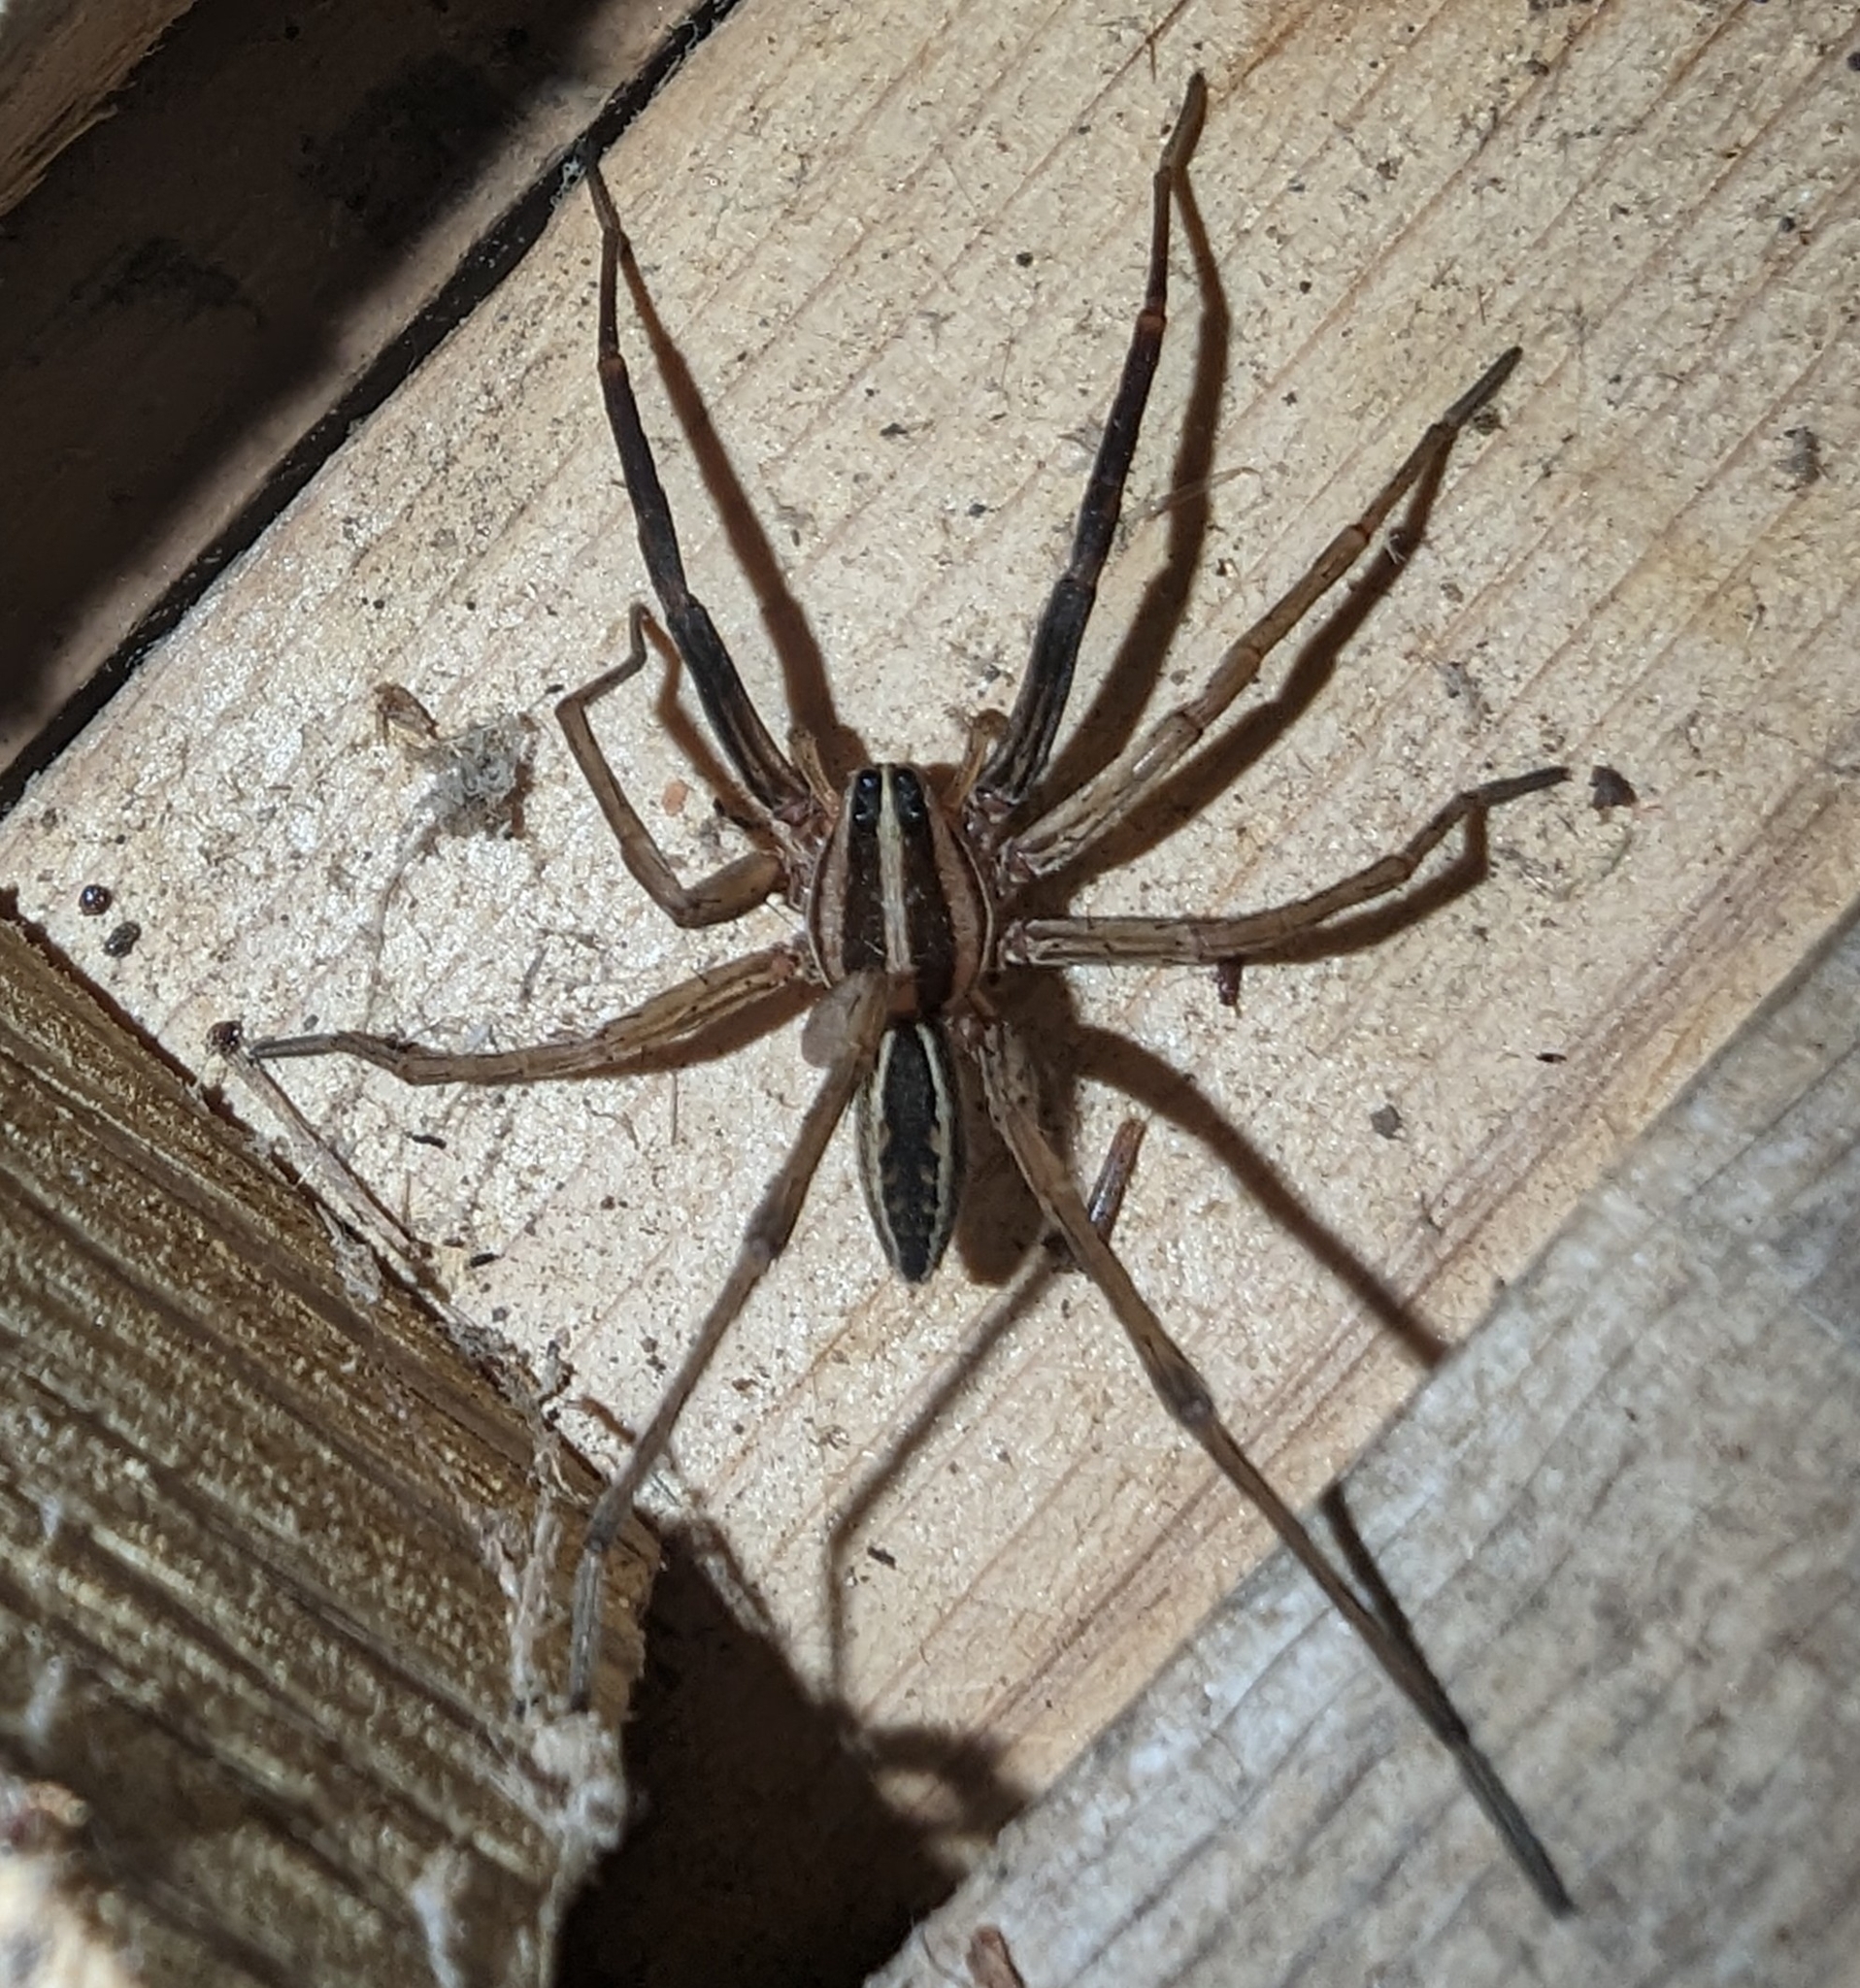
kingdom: Animalia
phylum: Arthropoda
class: Arachnida
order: Araneae
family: Lycosidae
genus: Rabidosa
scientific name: Rabidosa rabida
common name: Rabid wolf spider
